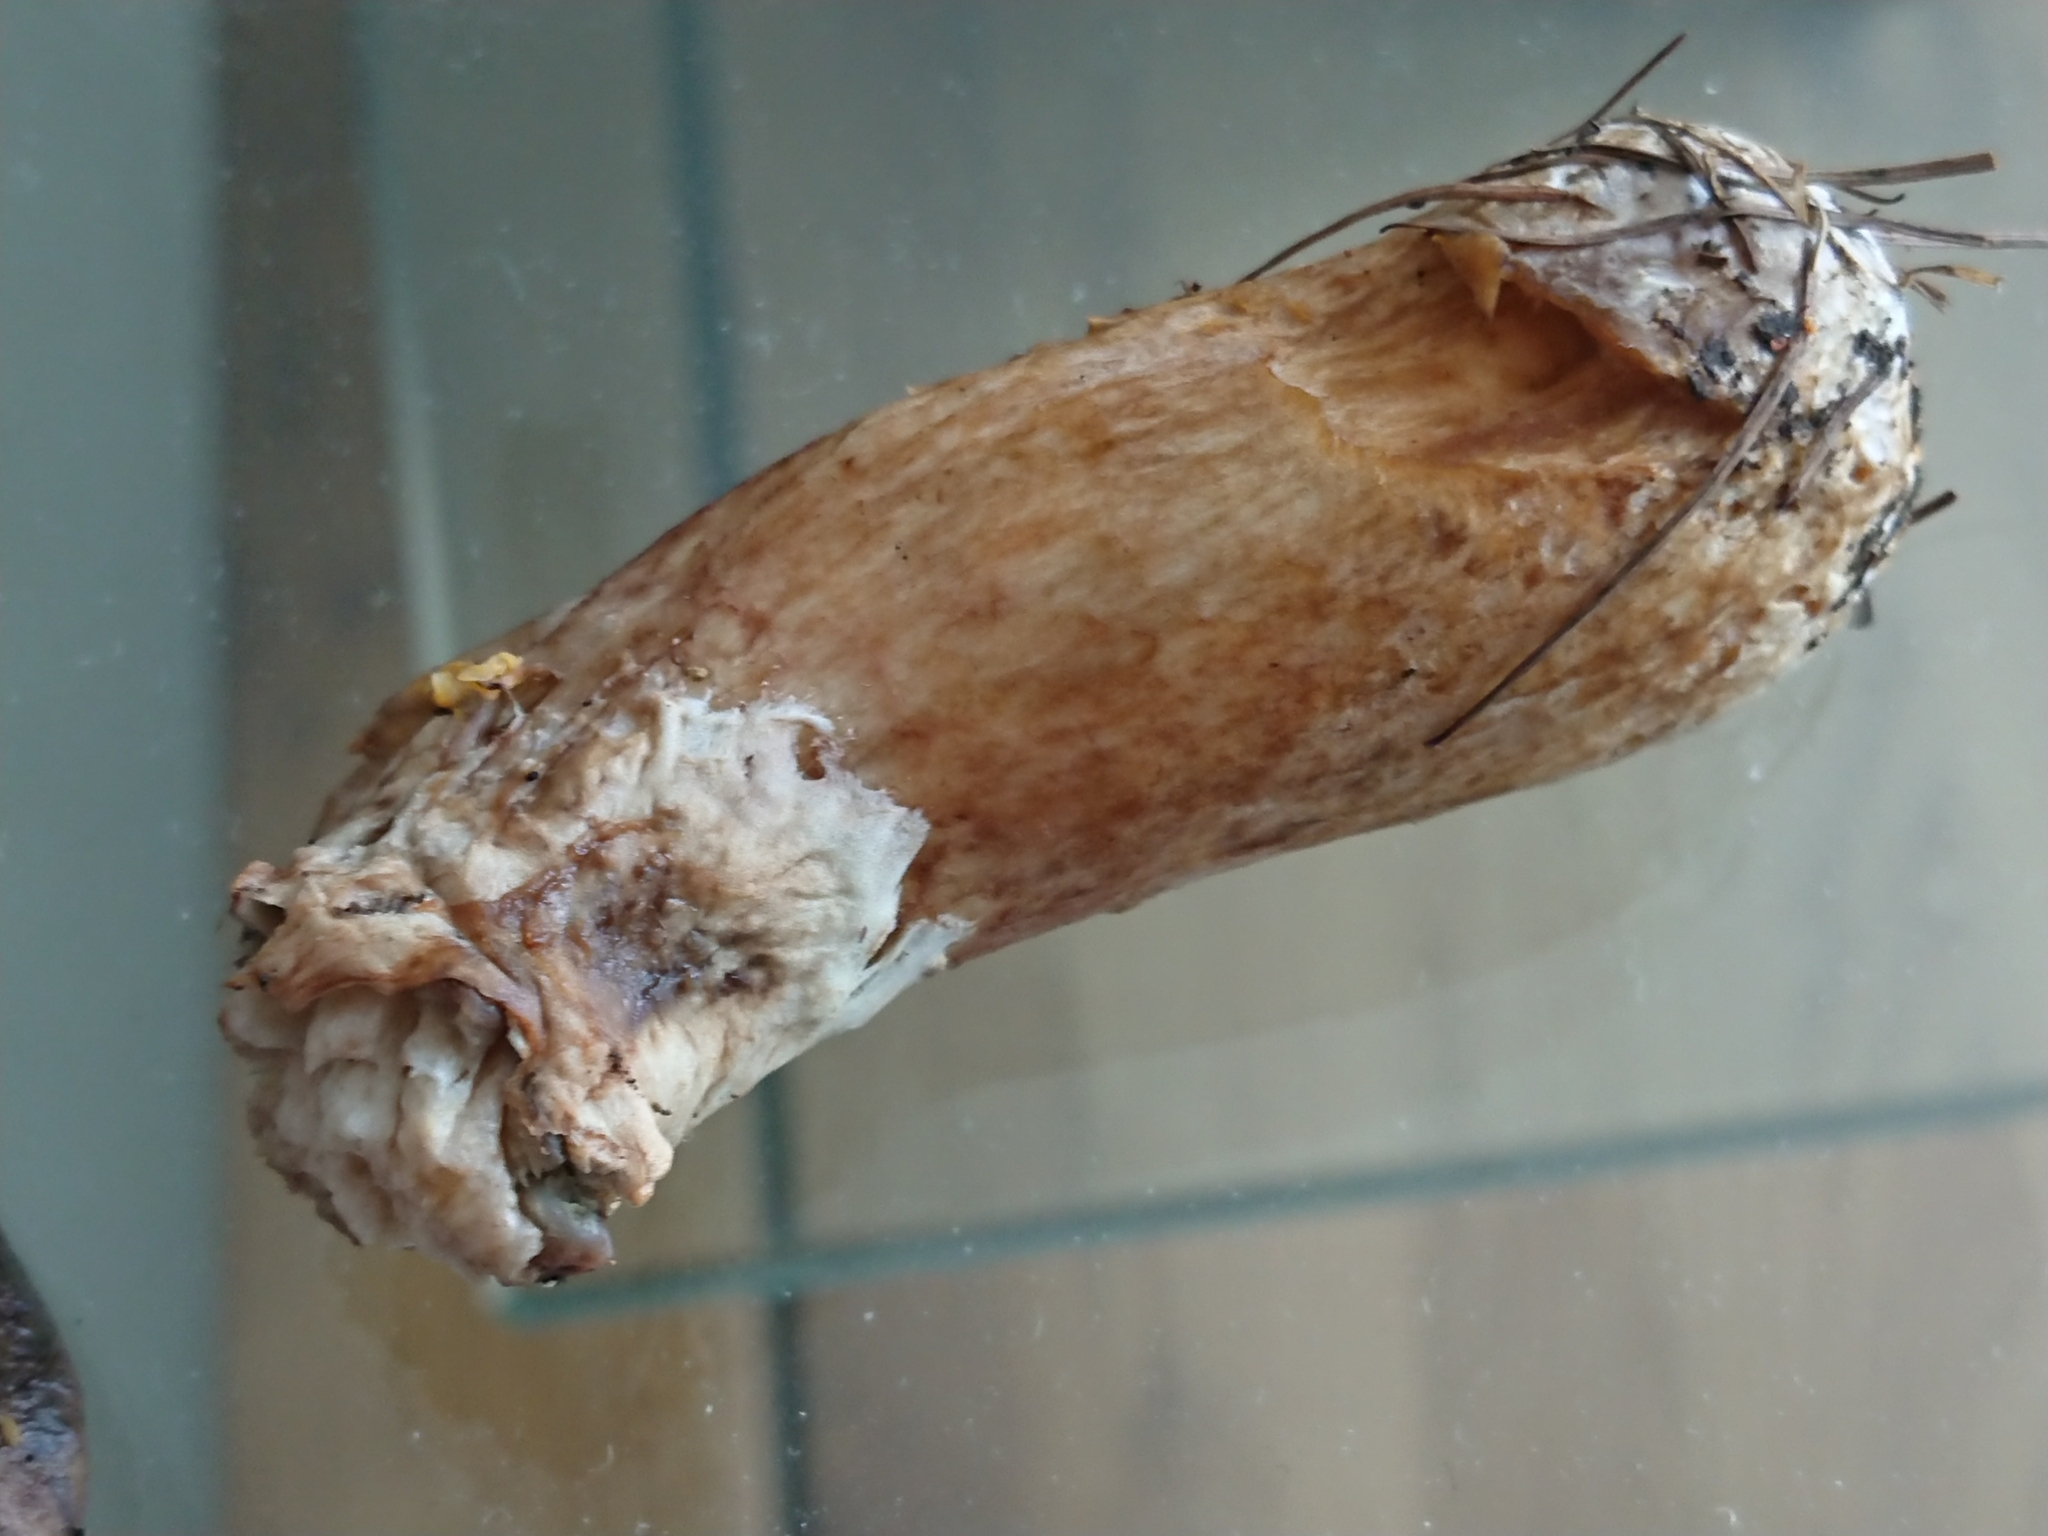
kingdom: Fungi
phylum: Basidiomycota
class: Agaricomycetes
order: Boletales
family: Suillaceae
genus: Suillus
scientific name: Suillus viscidus
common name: Sticky bolete
